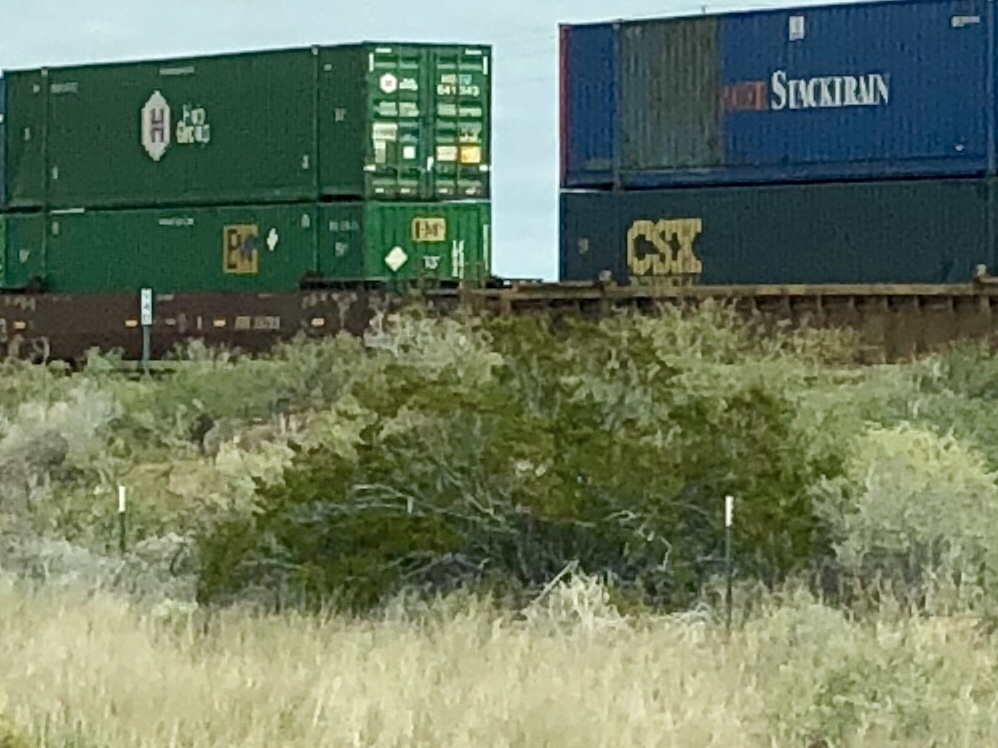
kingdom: Plantae
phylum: Tracheophyta
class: Magnoliopsida
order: Zygophyllales
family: Zygophyllaceae
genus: Larrea
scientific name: Larrea tridentata
